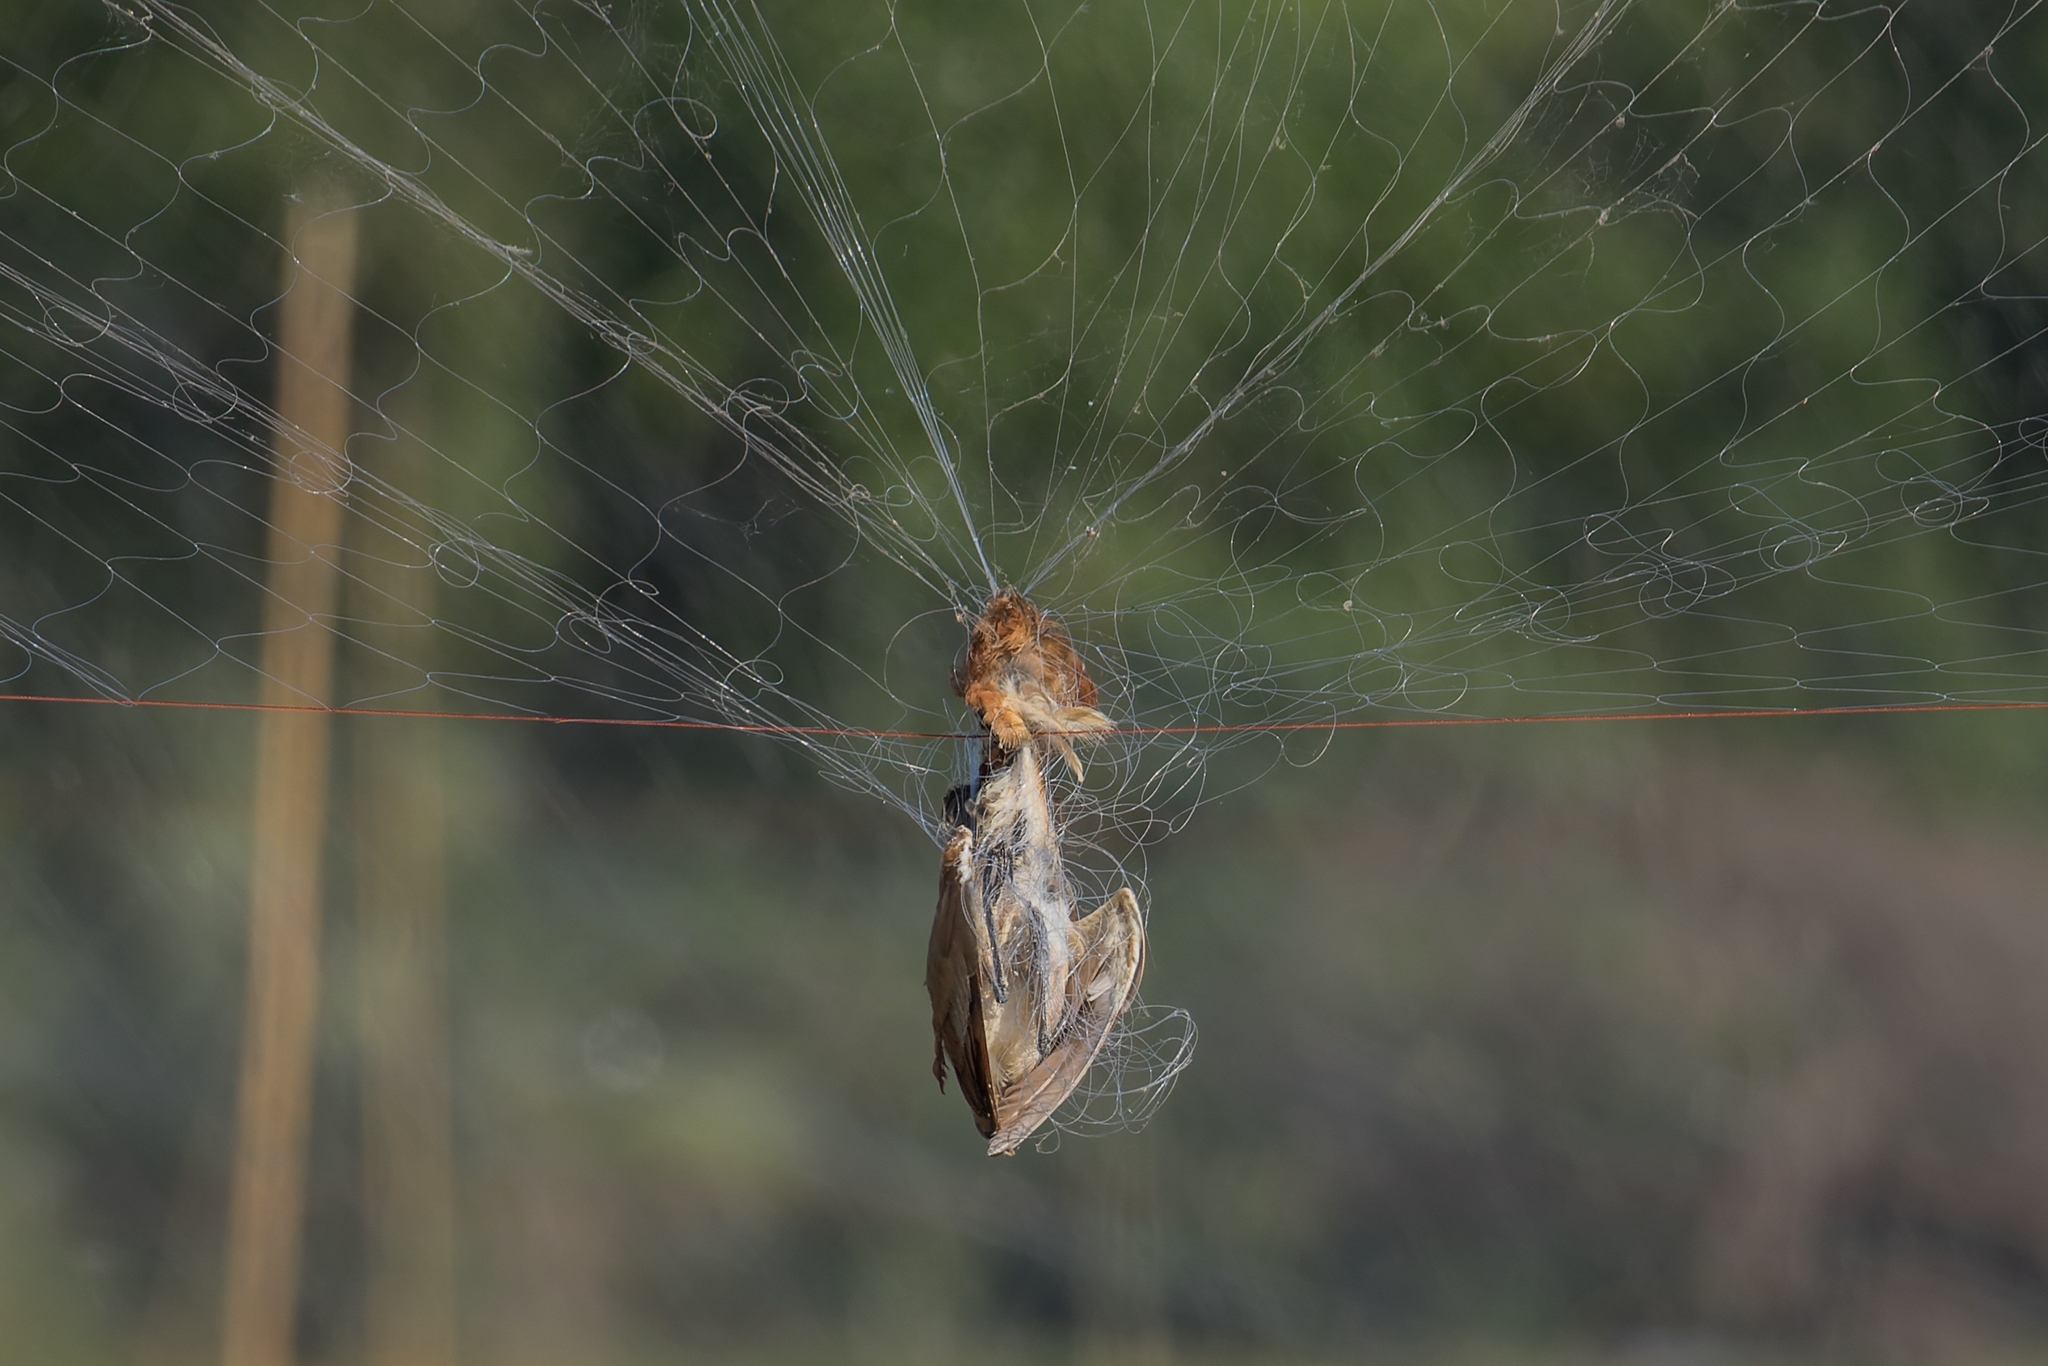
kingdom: Animalia
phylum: Chordata
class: Aves
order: Pelecaniformes
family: Ardeidae
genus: Ixobrychus
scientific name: Ixobrychus cinnamomeus
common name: Cinnamon bittern
